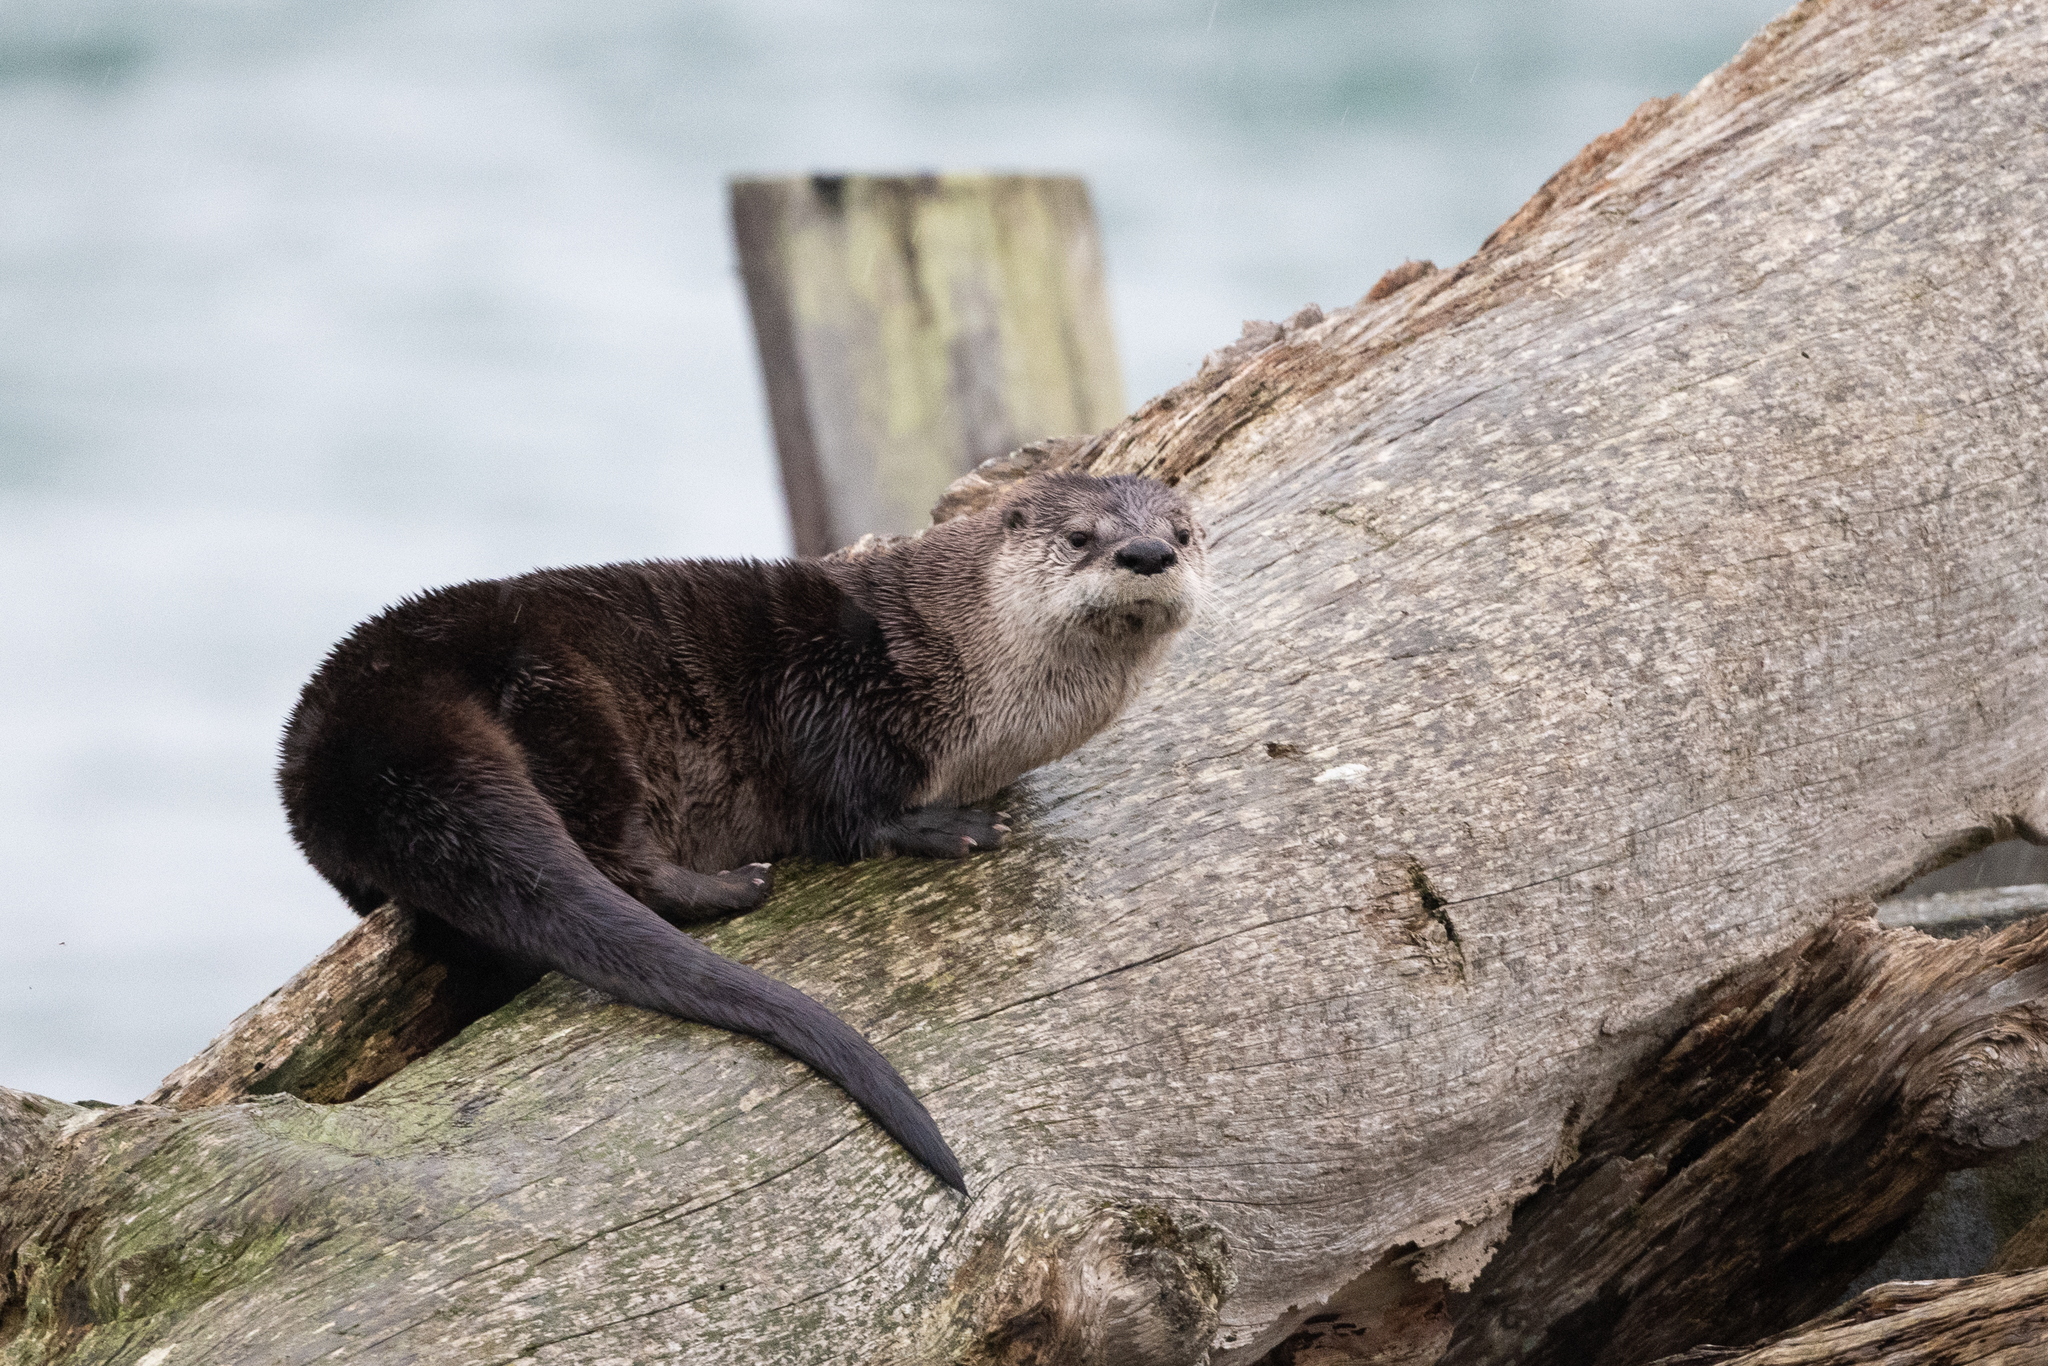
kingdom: Animalia
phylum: Chordata
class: Mammalia
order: Carnivora
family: Mustelidae
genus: Lontra
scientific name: Lontra canadensis
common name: North american river otter
